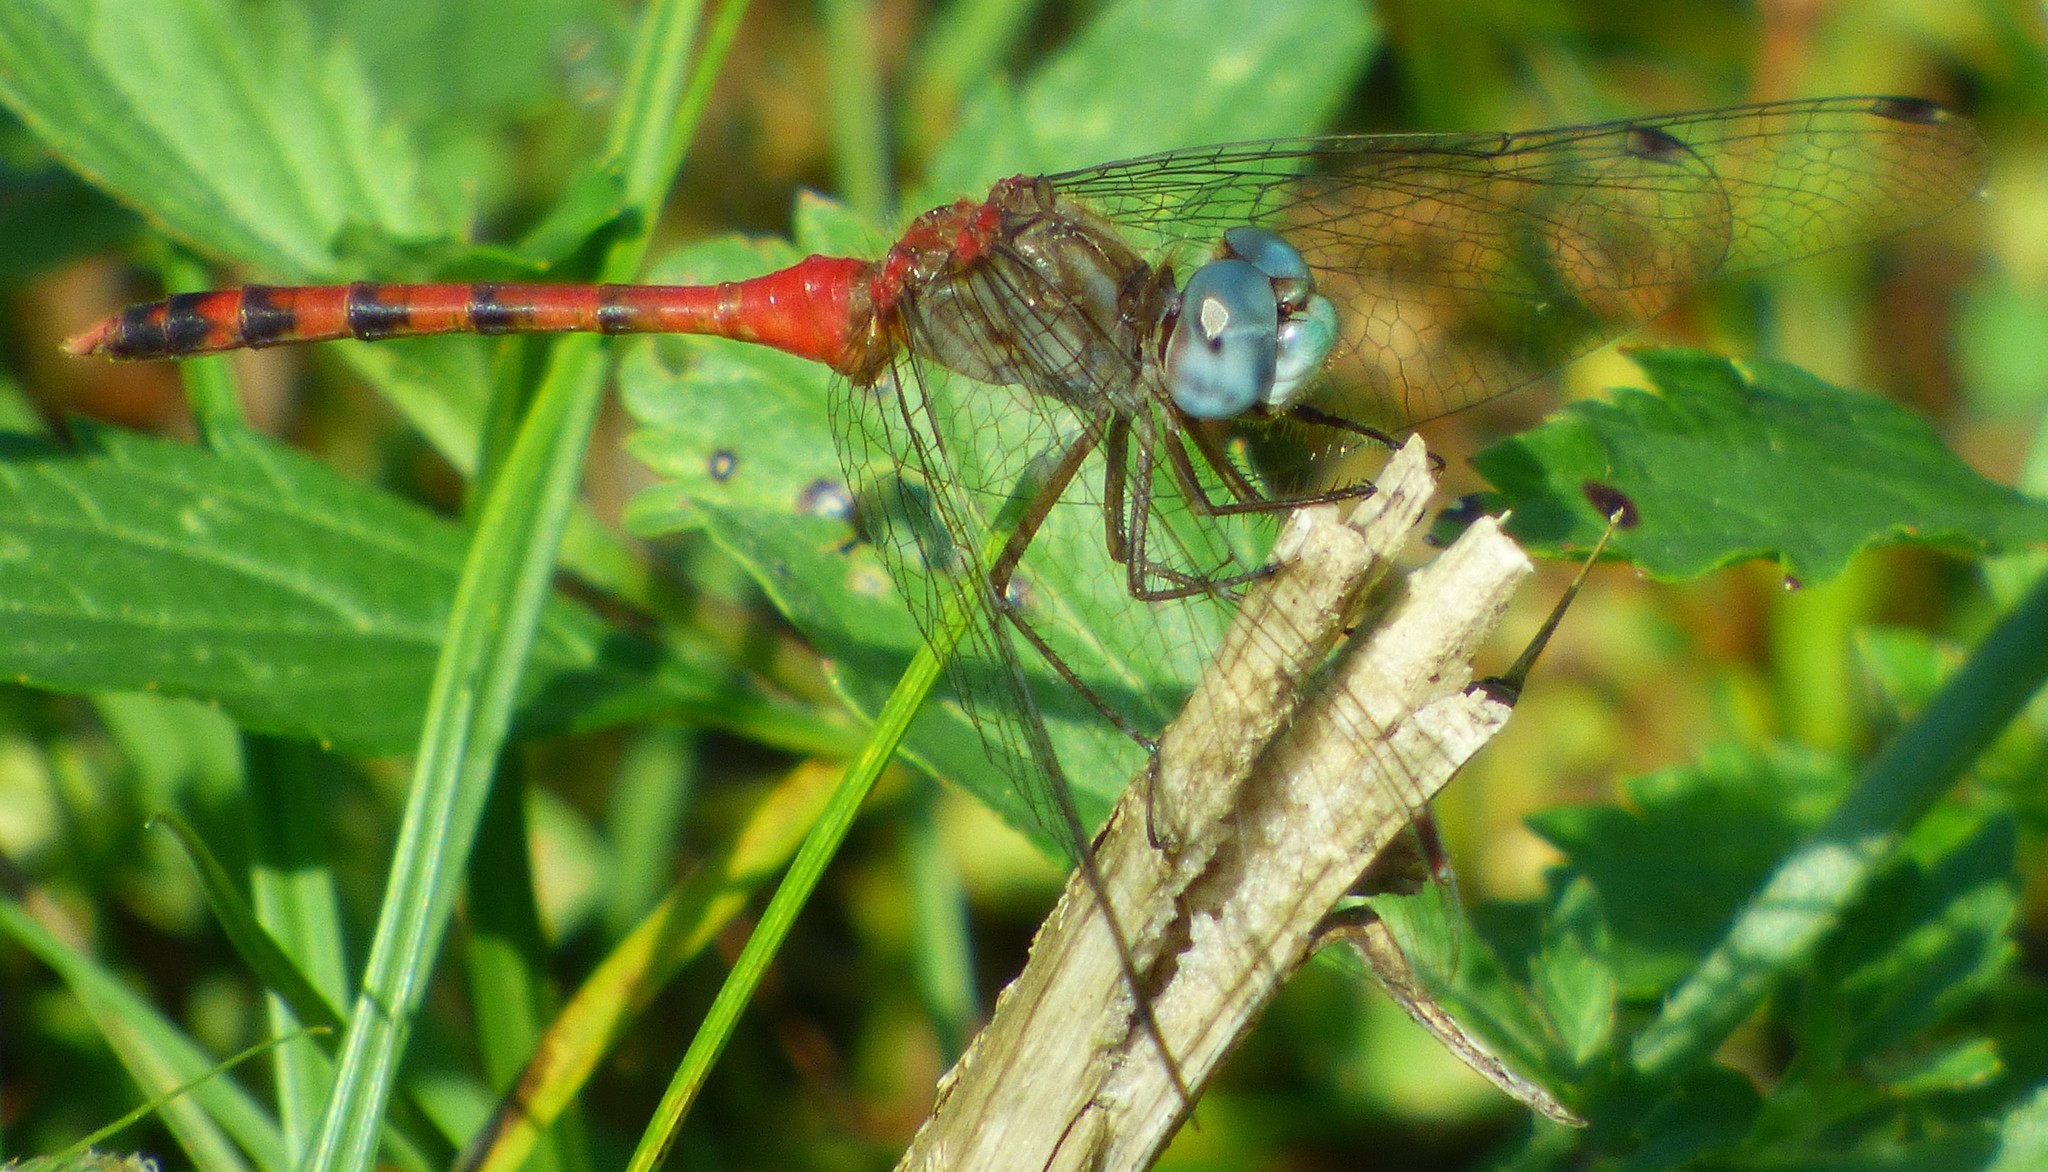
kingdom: Animalia
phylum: Arthropoda
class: Insecta
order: Odonata
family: Libellulidae
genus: Sympetrum
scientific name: Sympetrum ambiguum
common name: Blue-faced meadowhawk
